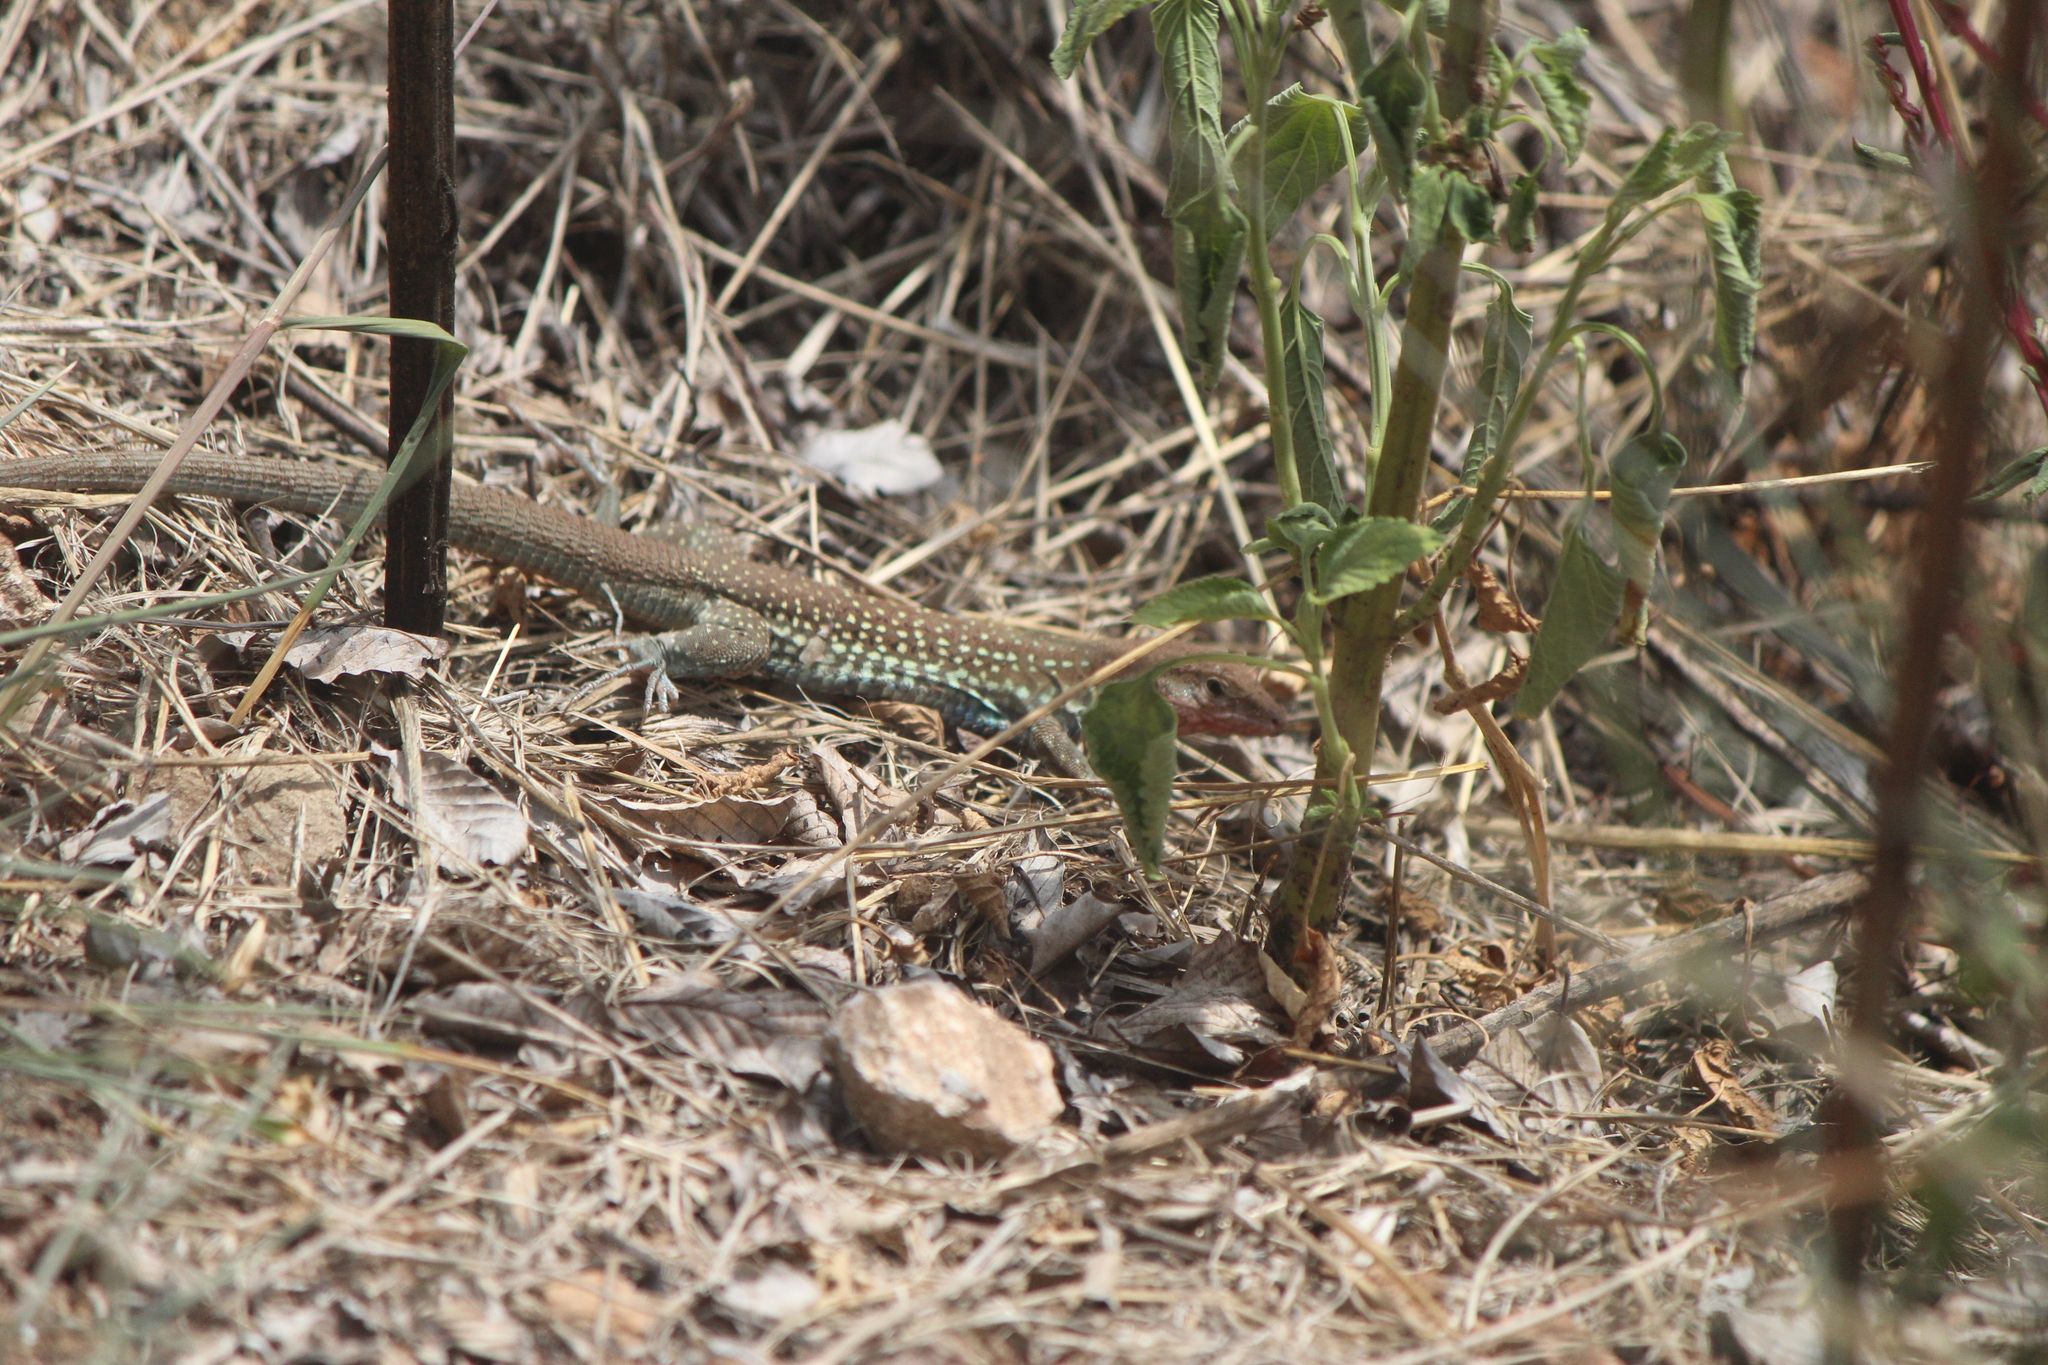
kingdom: Animalia
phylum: Chordata
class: Squamata
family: Teiidae
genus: Aspidoscelis
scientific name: Aspidoscelis gularis
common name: Eastern spotted whiptail
